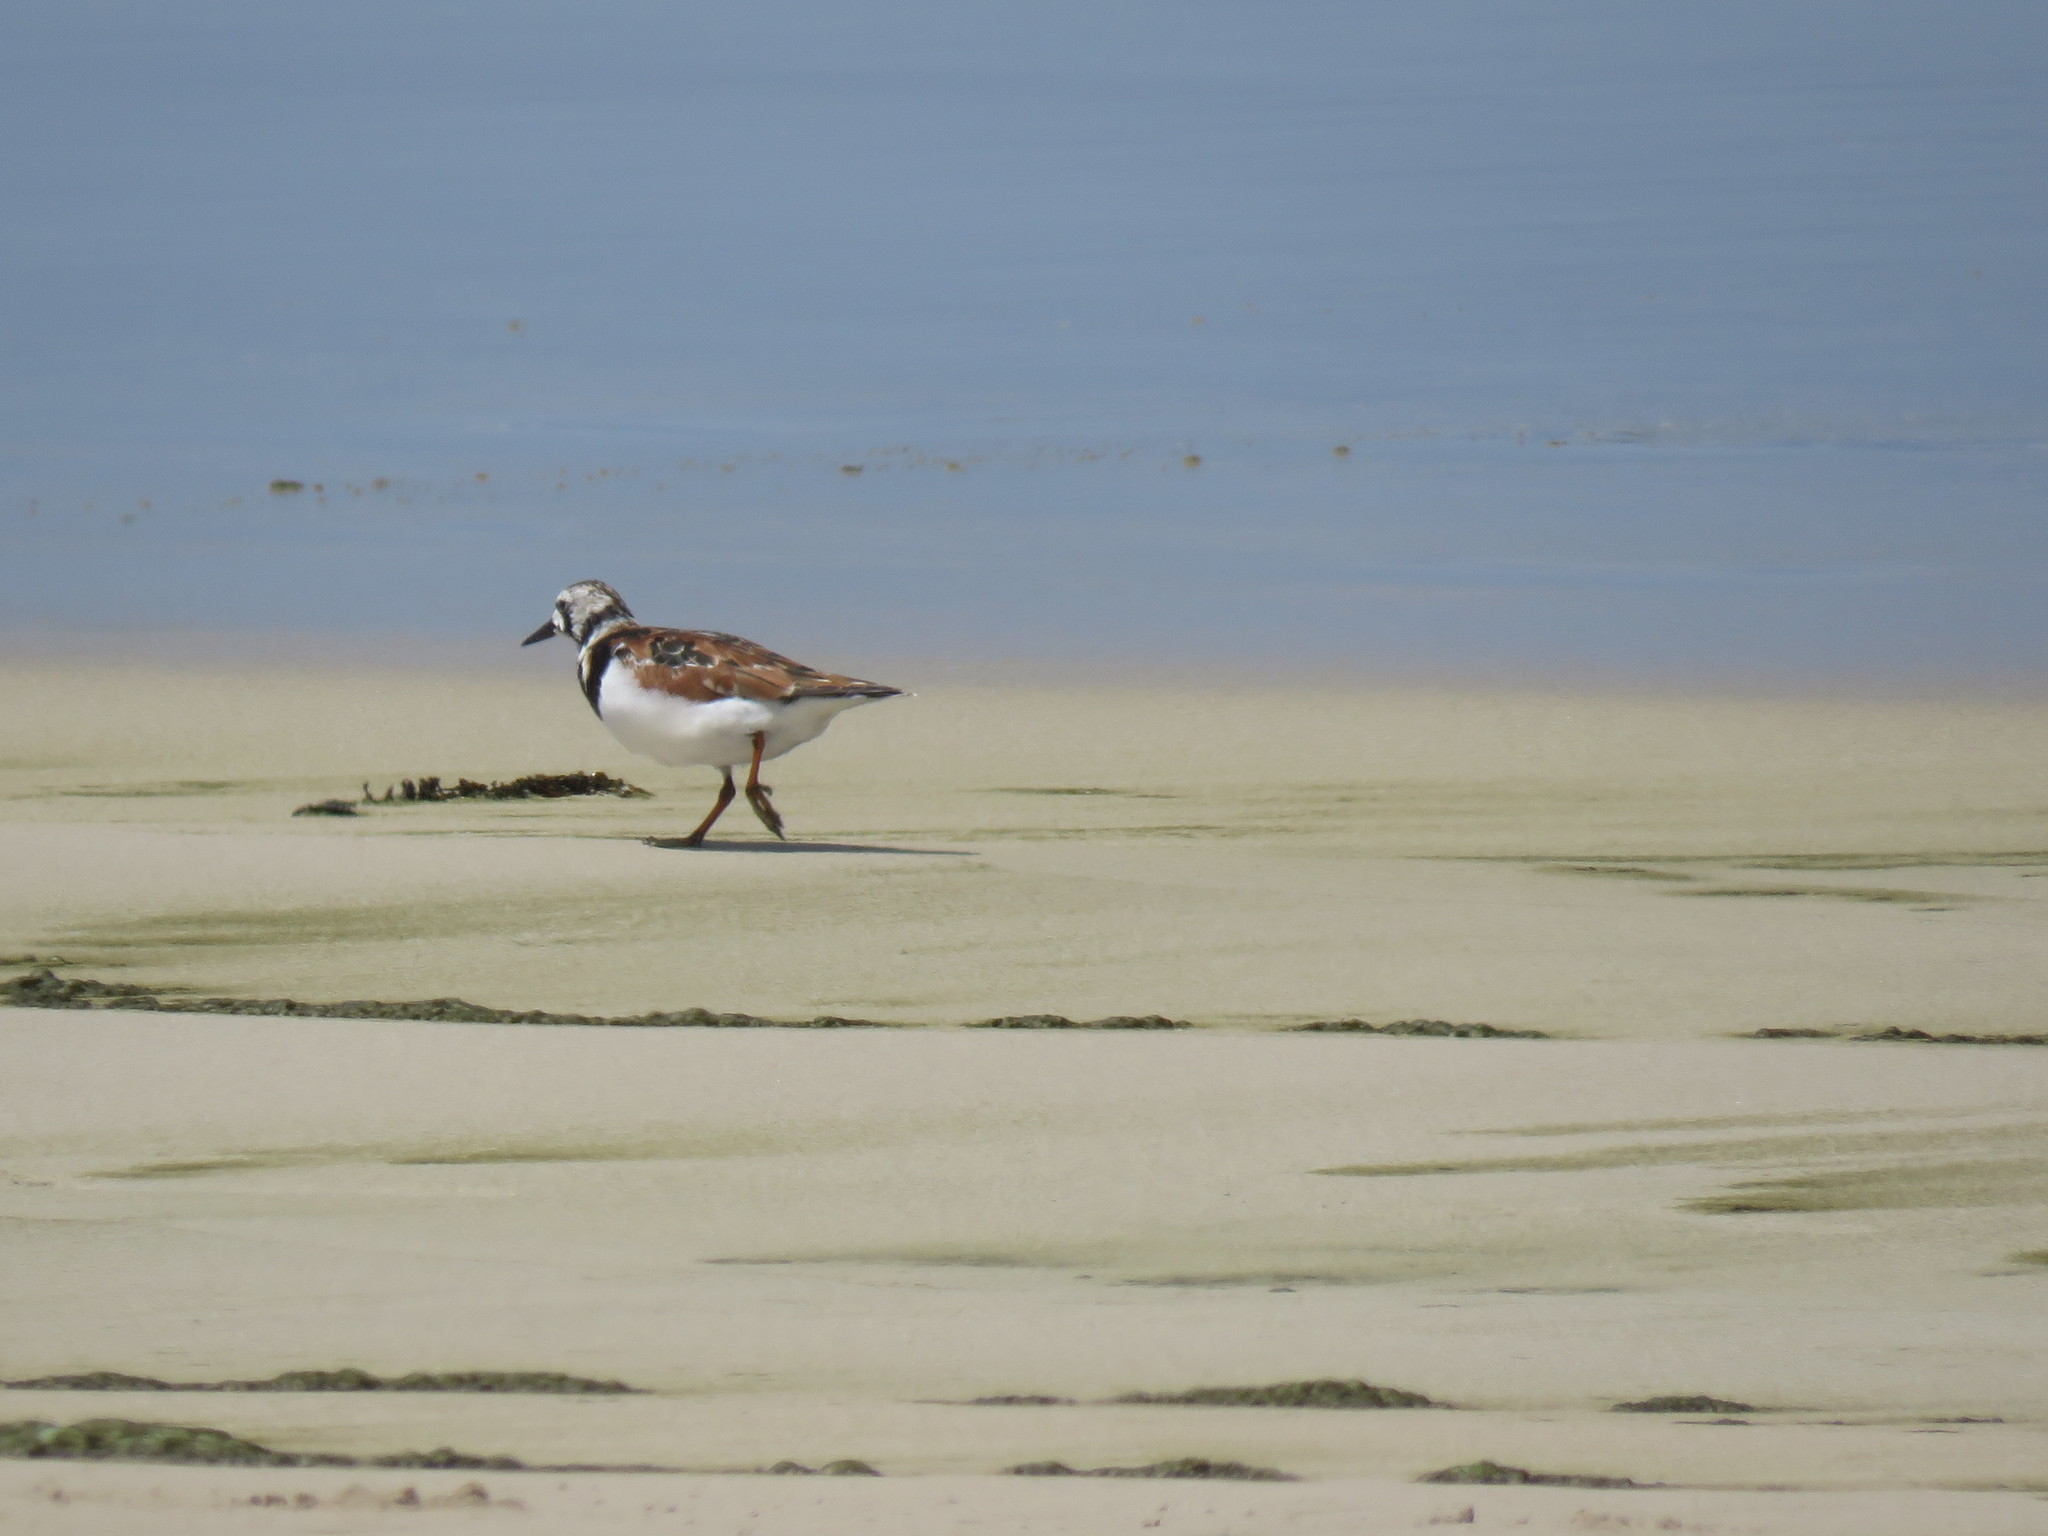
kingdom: Animalia
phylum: Chordata
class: Aves
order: Charadriiformes
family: Scolopacidae
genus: Arenaria
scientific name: Arenaria interpres
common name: Ruddy turnstone
